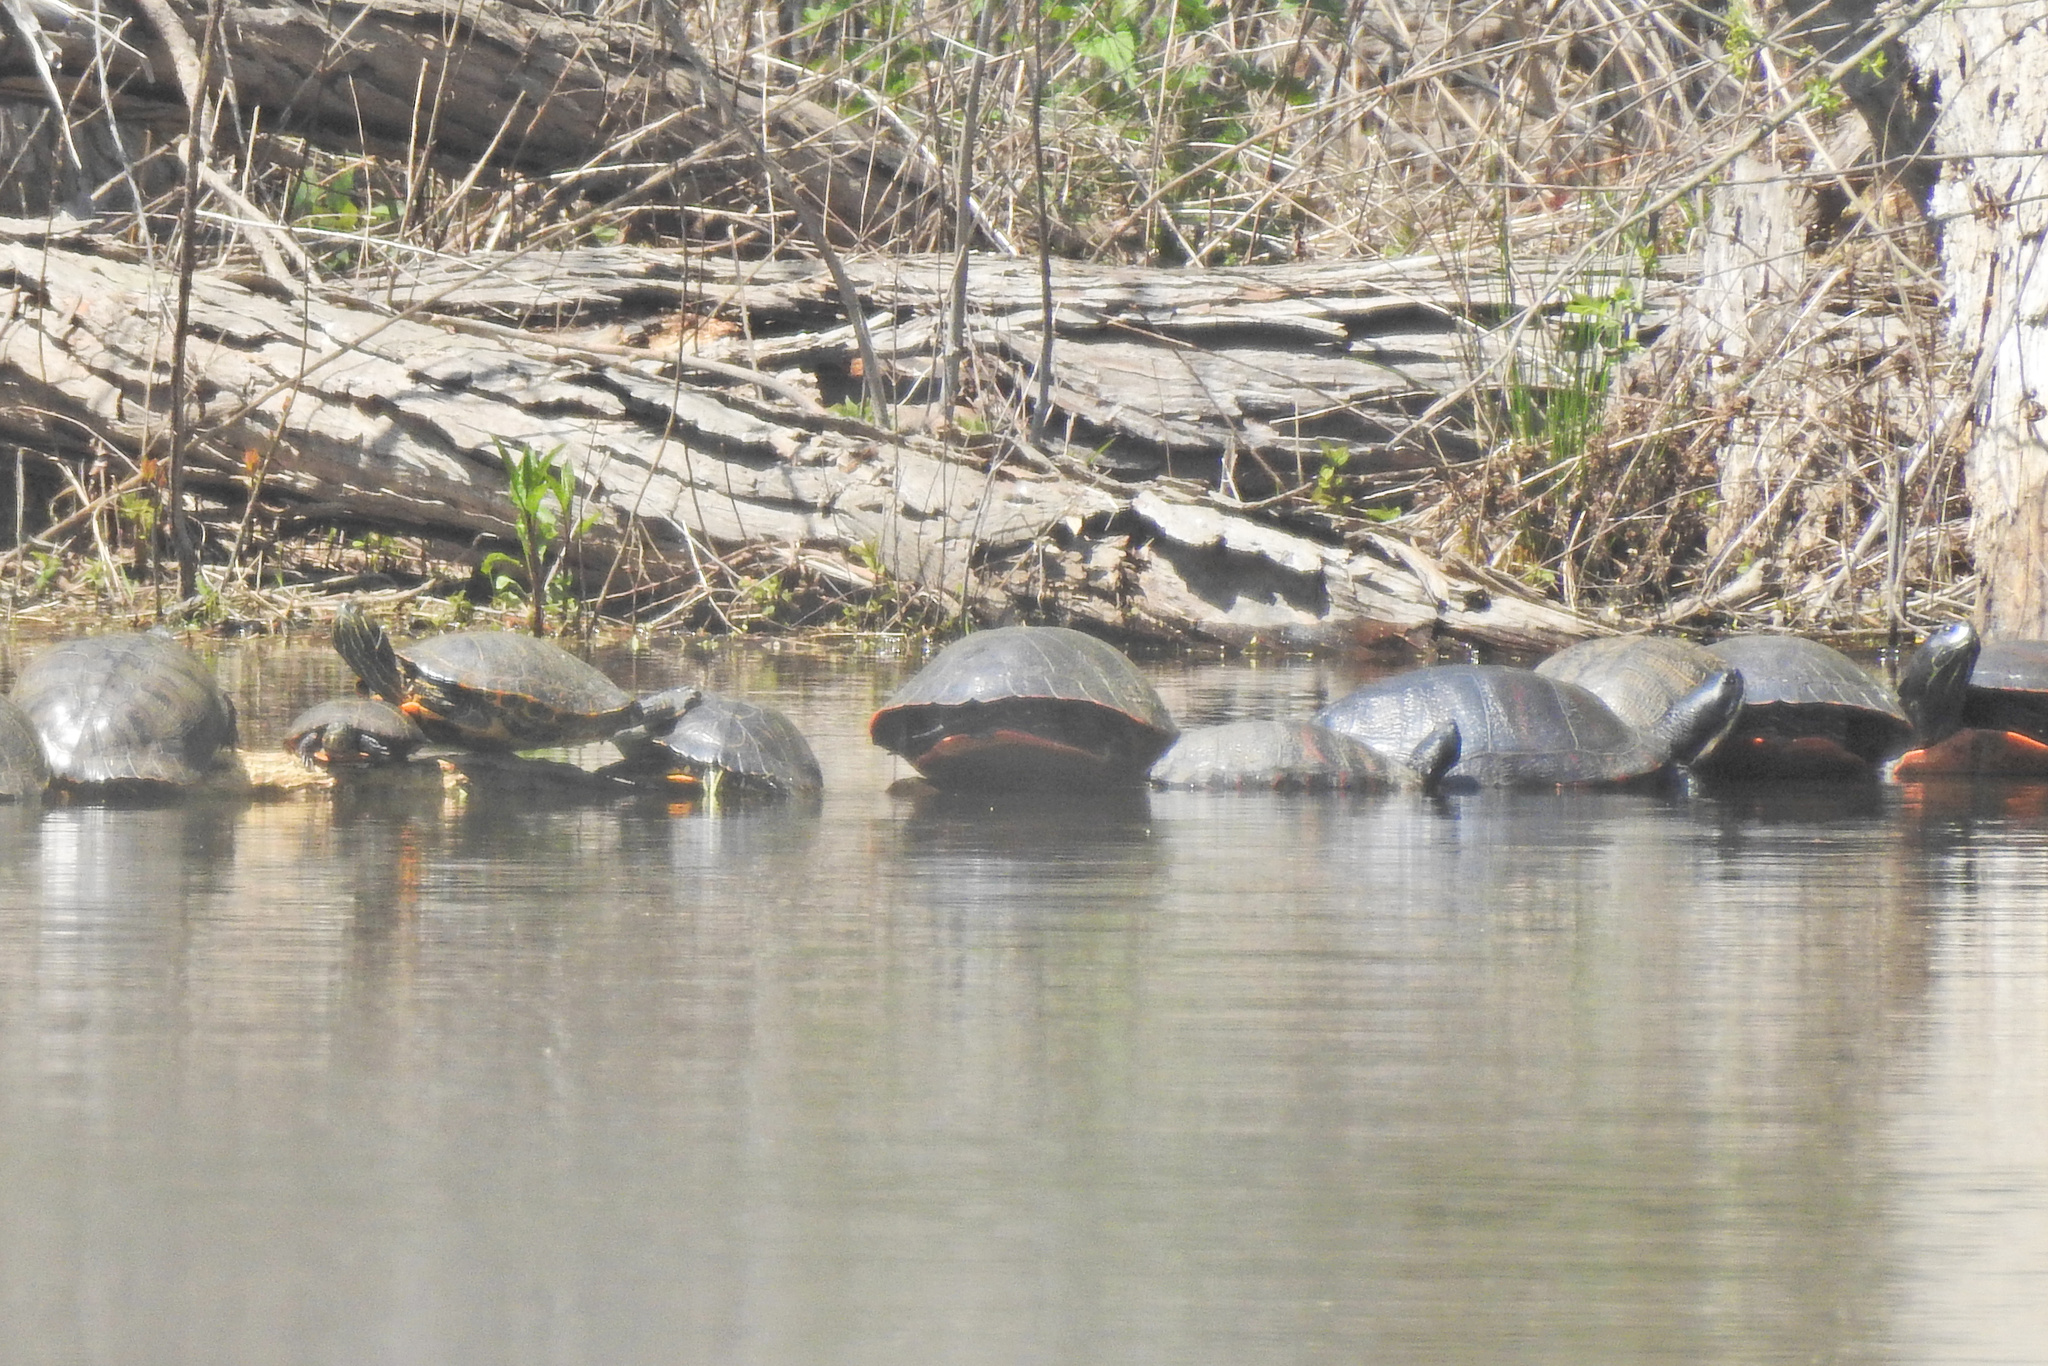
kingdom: Animalia
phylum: Chordata
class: Testudines
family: Emydidae
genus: Pseudemys
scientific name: Pseudemys rubriventris
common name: American red-bellied turtle
